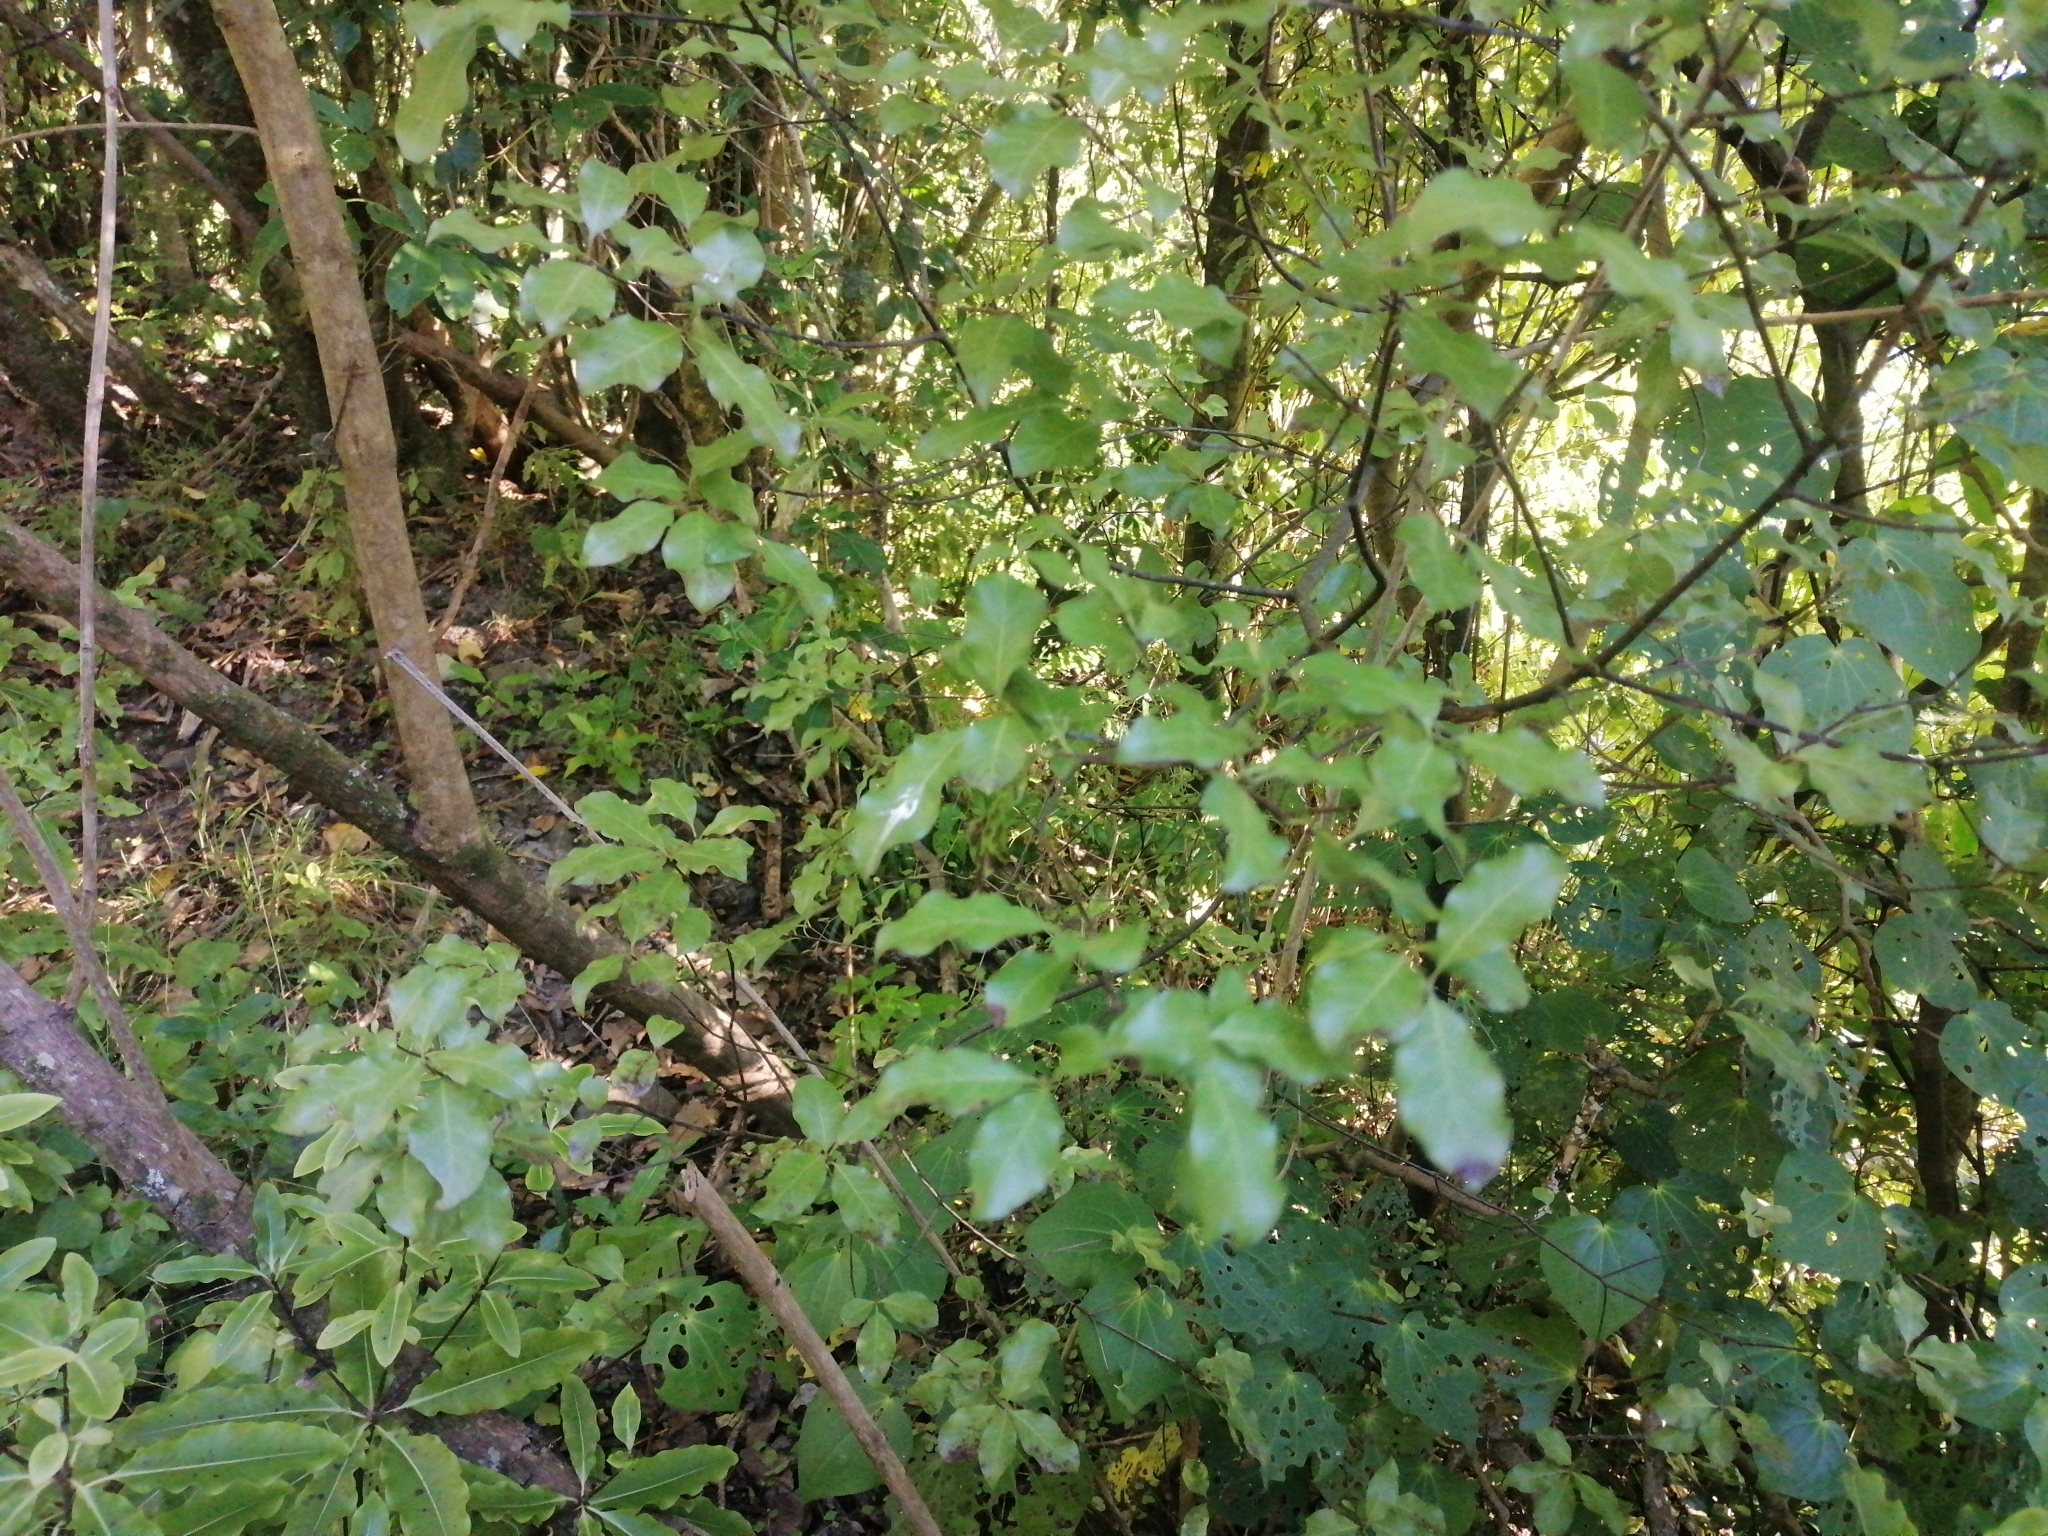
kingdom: Plantae
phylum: Tracheophyta
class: Magnoliopsida
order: Apiales
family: Pittosporaceae
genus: Pittosporum
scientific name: Pittosporum tenuifolium
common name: Kohuhu
